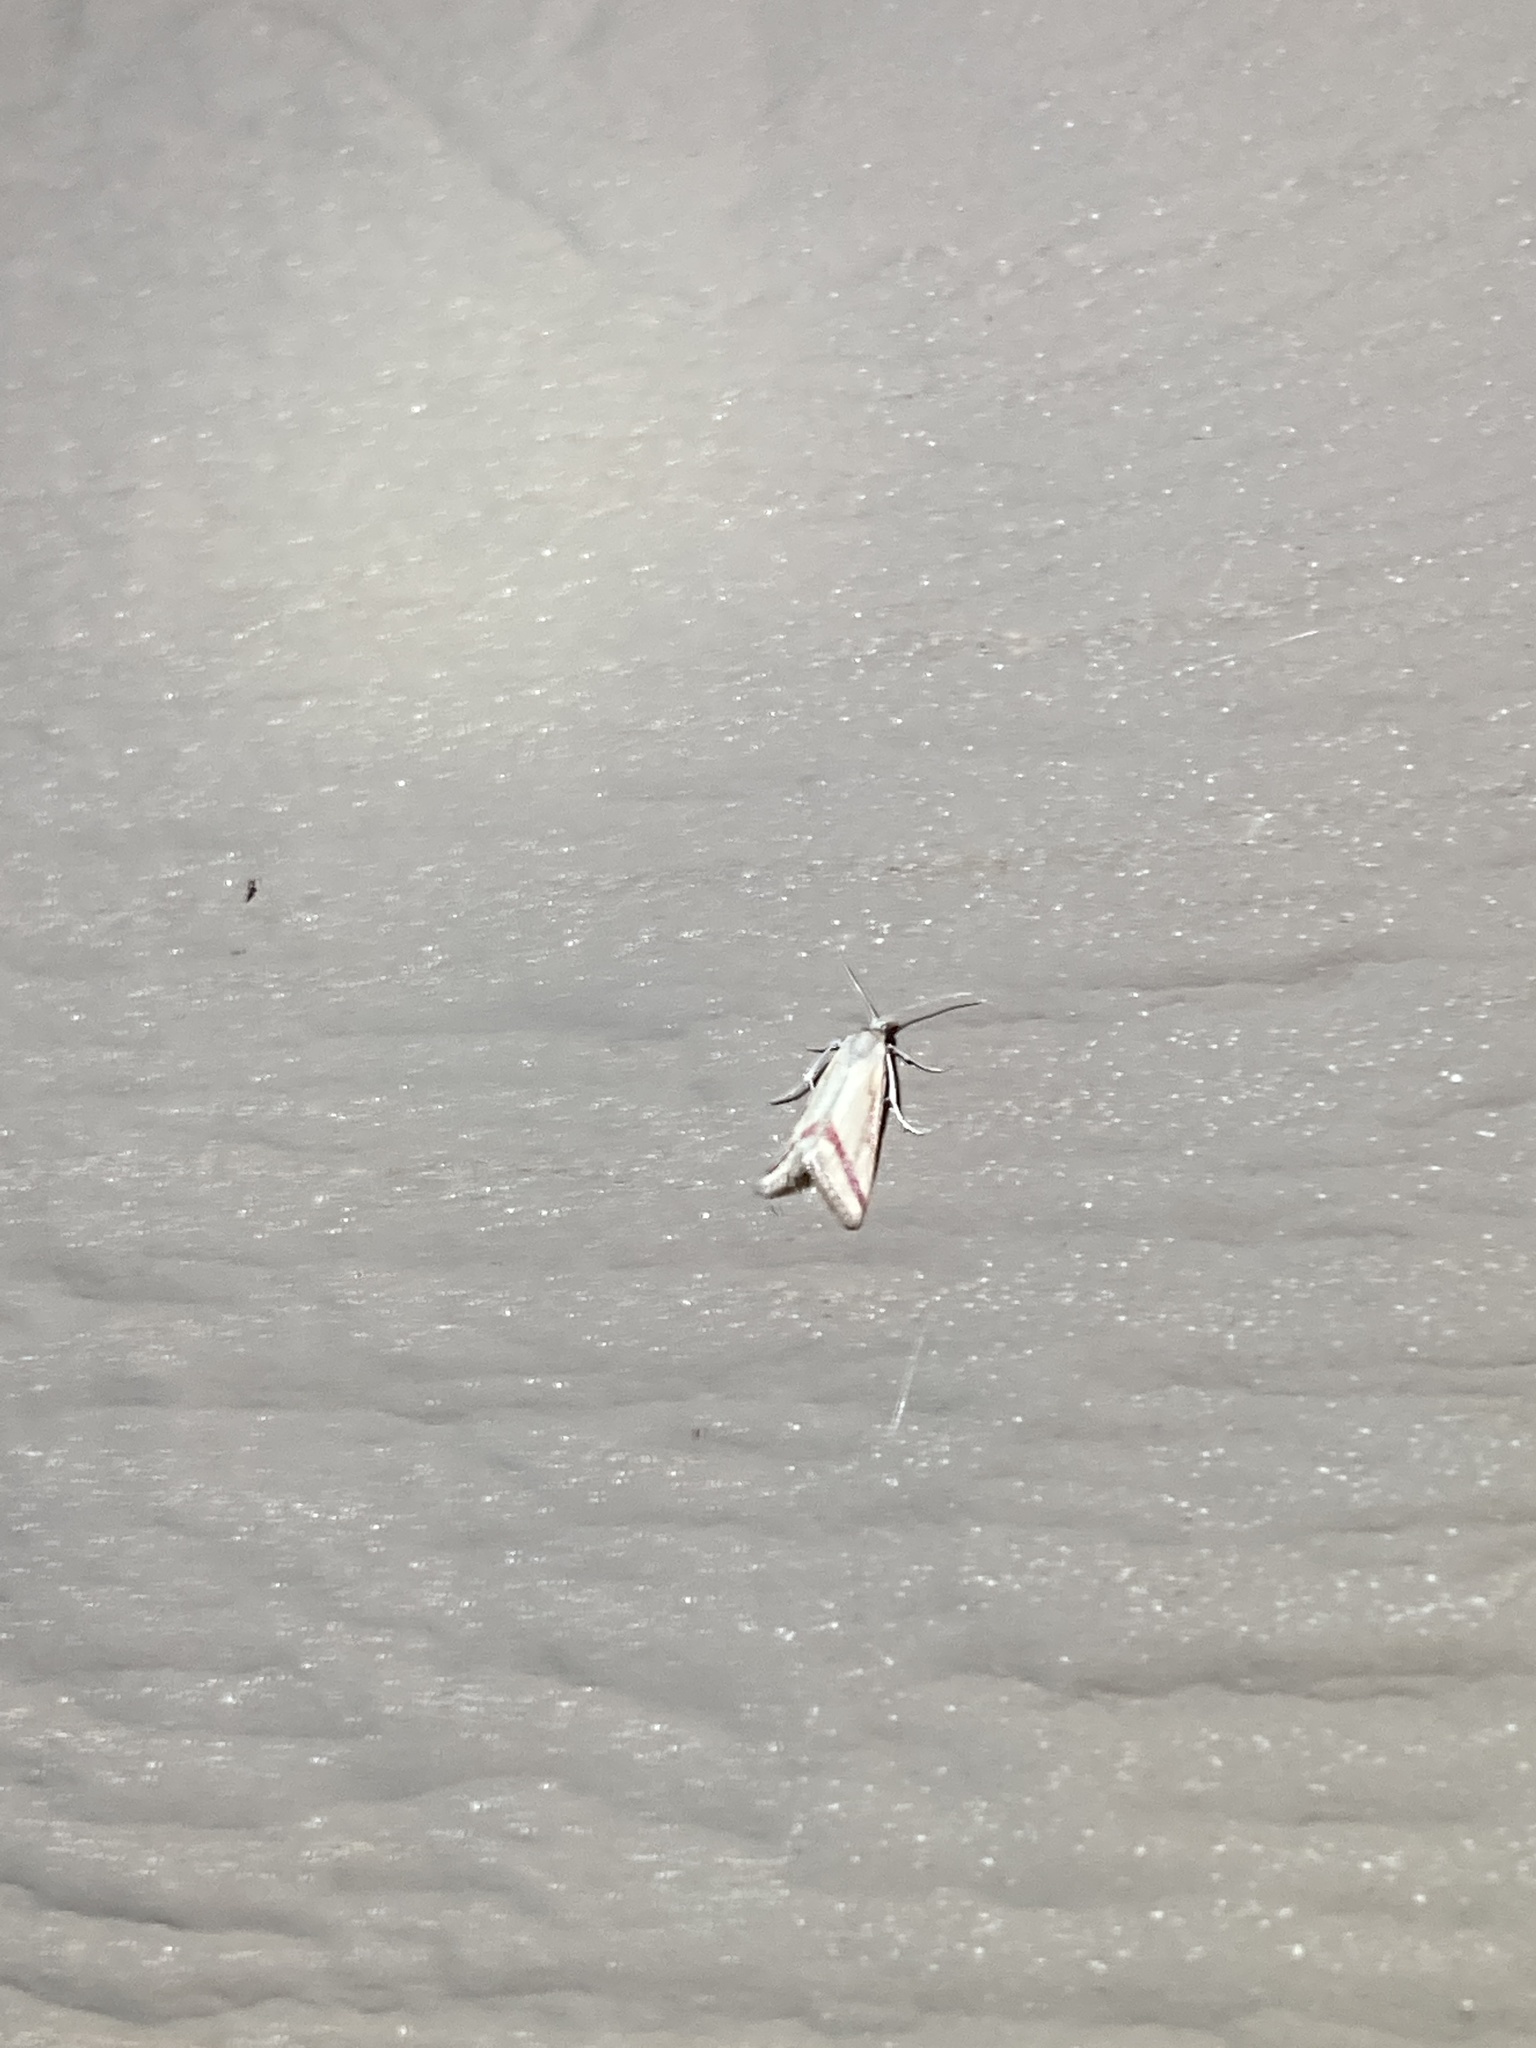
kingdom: Animalia
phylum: Arthropoda
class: Insecta
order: Lepidoptera
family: Crambidae
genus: Microtheoris
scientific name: Microtheoris vibicalis
